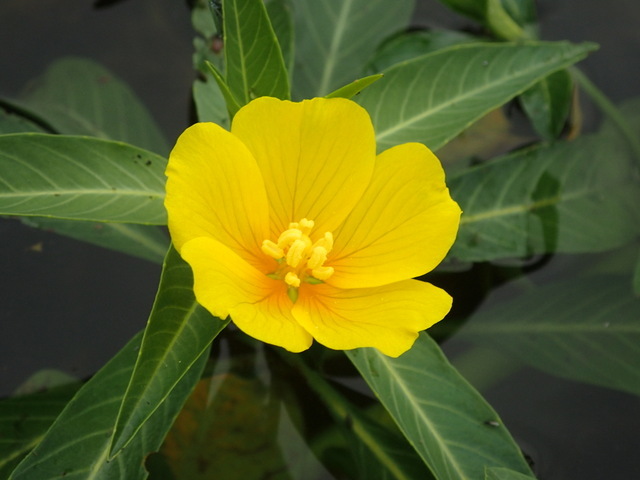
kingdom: Plantae
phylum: Tracheophyta
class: Magnoliopsida
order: Myrtales
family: Onagraceae
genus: Ludwigia
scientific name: Ludwigia peploides
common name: Floating primrose-willow
